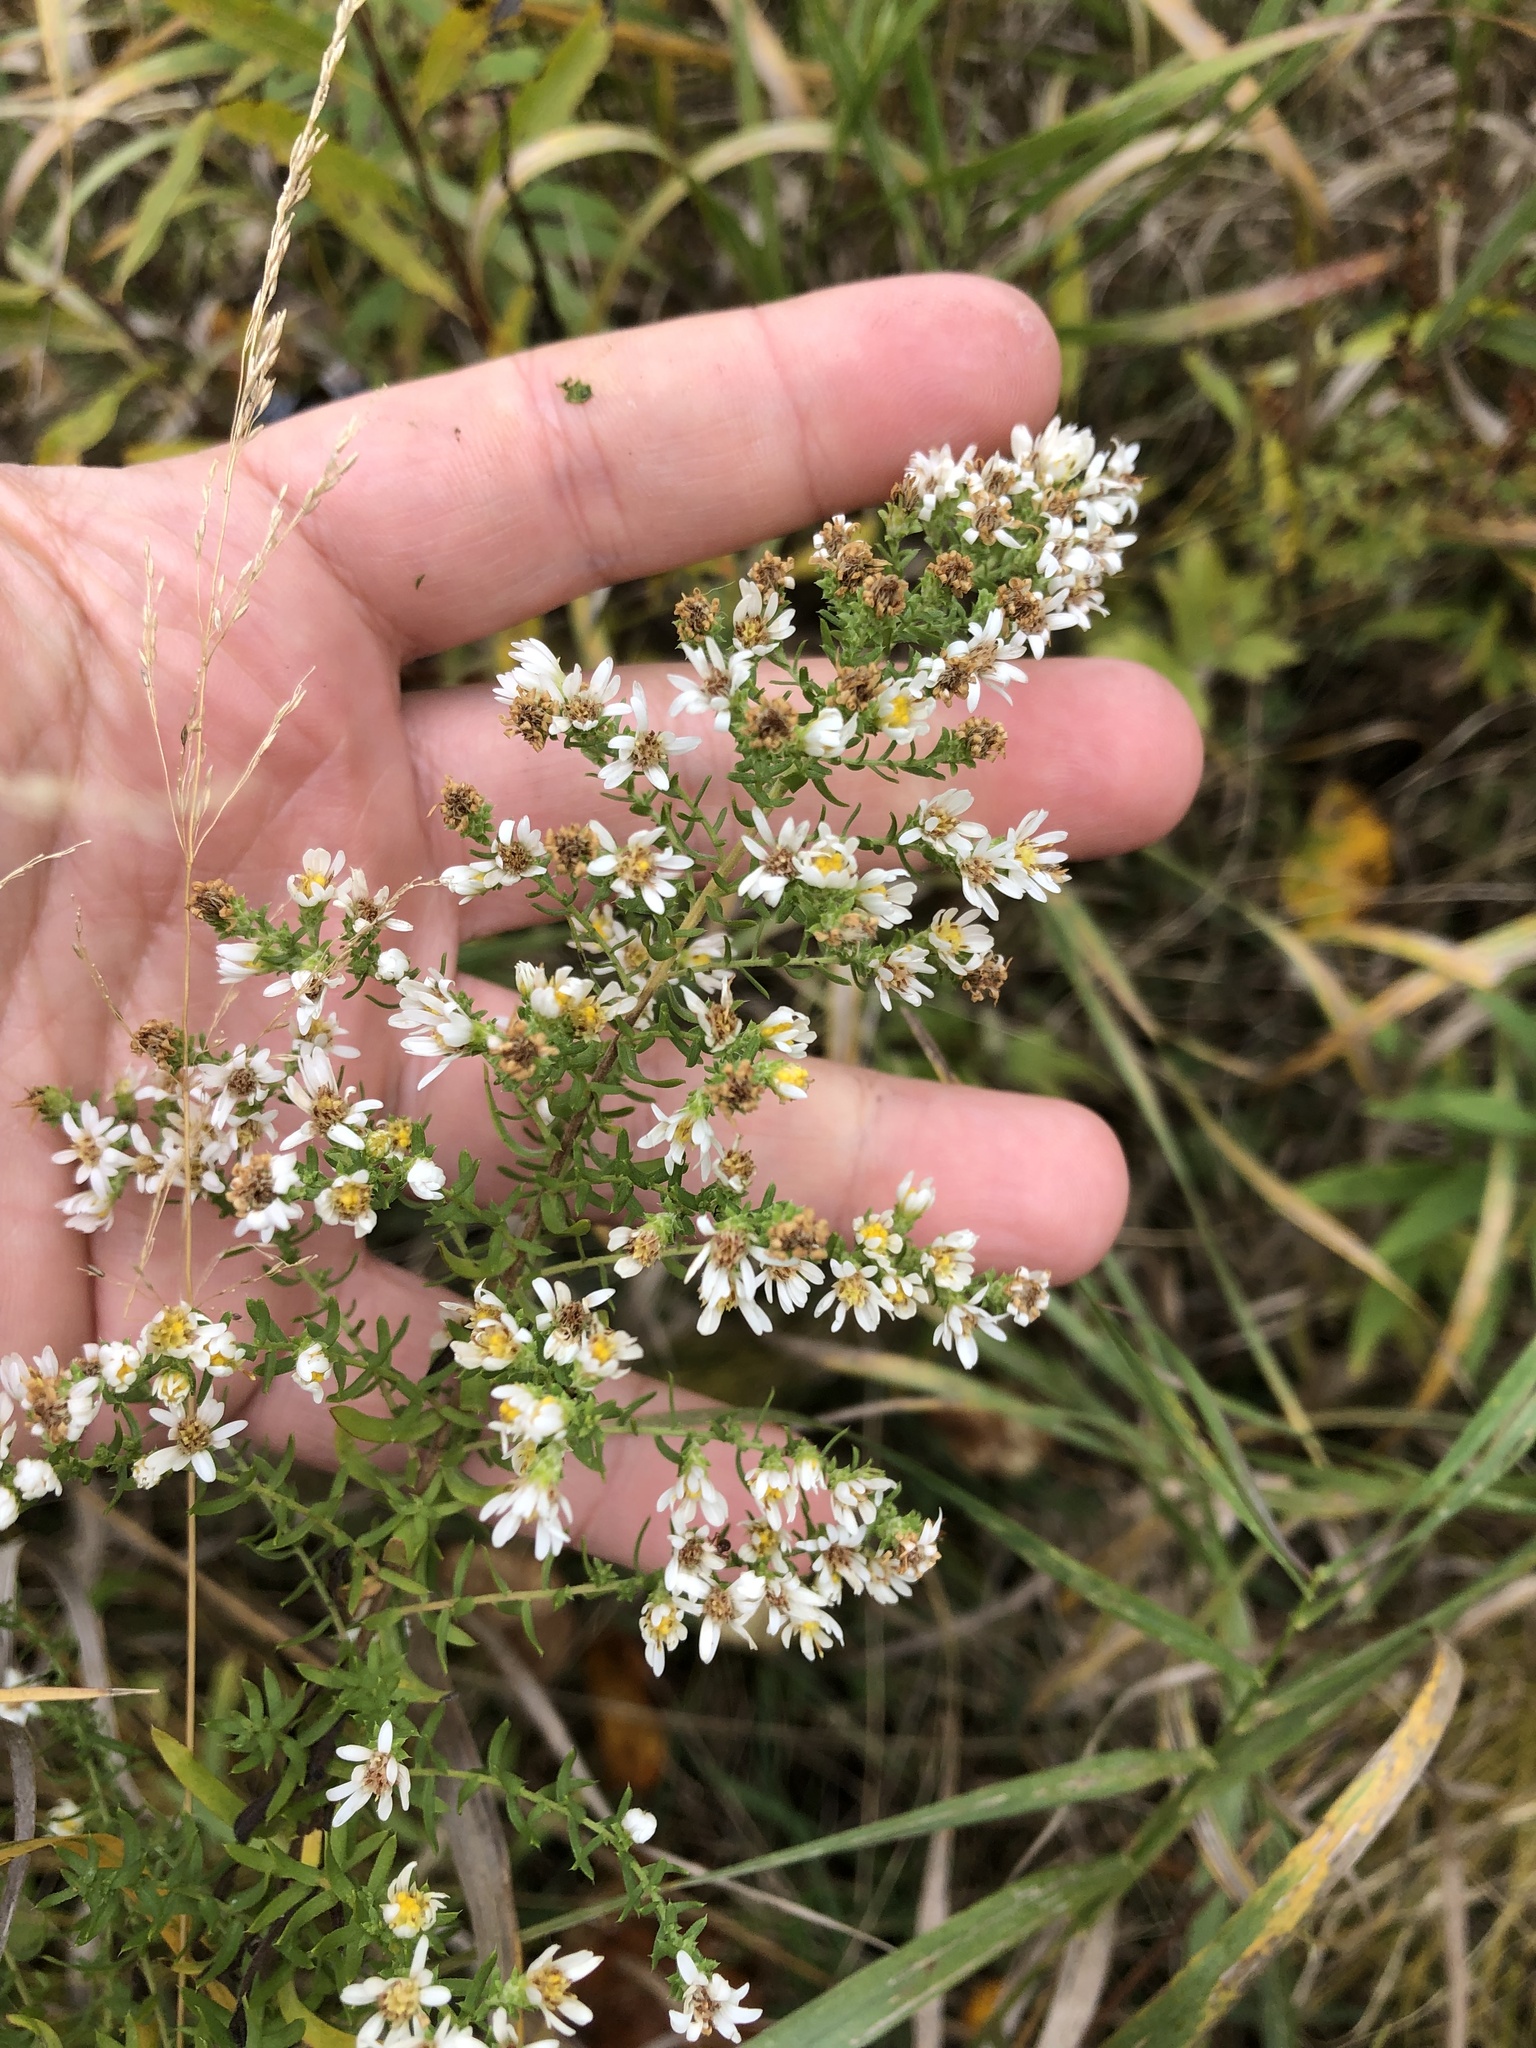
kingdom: Plantae
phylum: Tracheophyta
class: Magnoliopsida
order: Asterales
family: Asteraceae
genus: Symphyotrichum
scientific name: Symphyotrichum ericoides
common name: Heath aster
